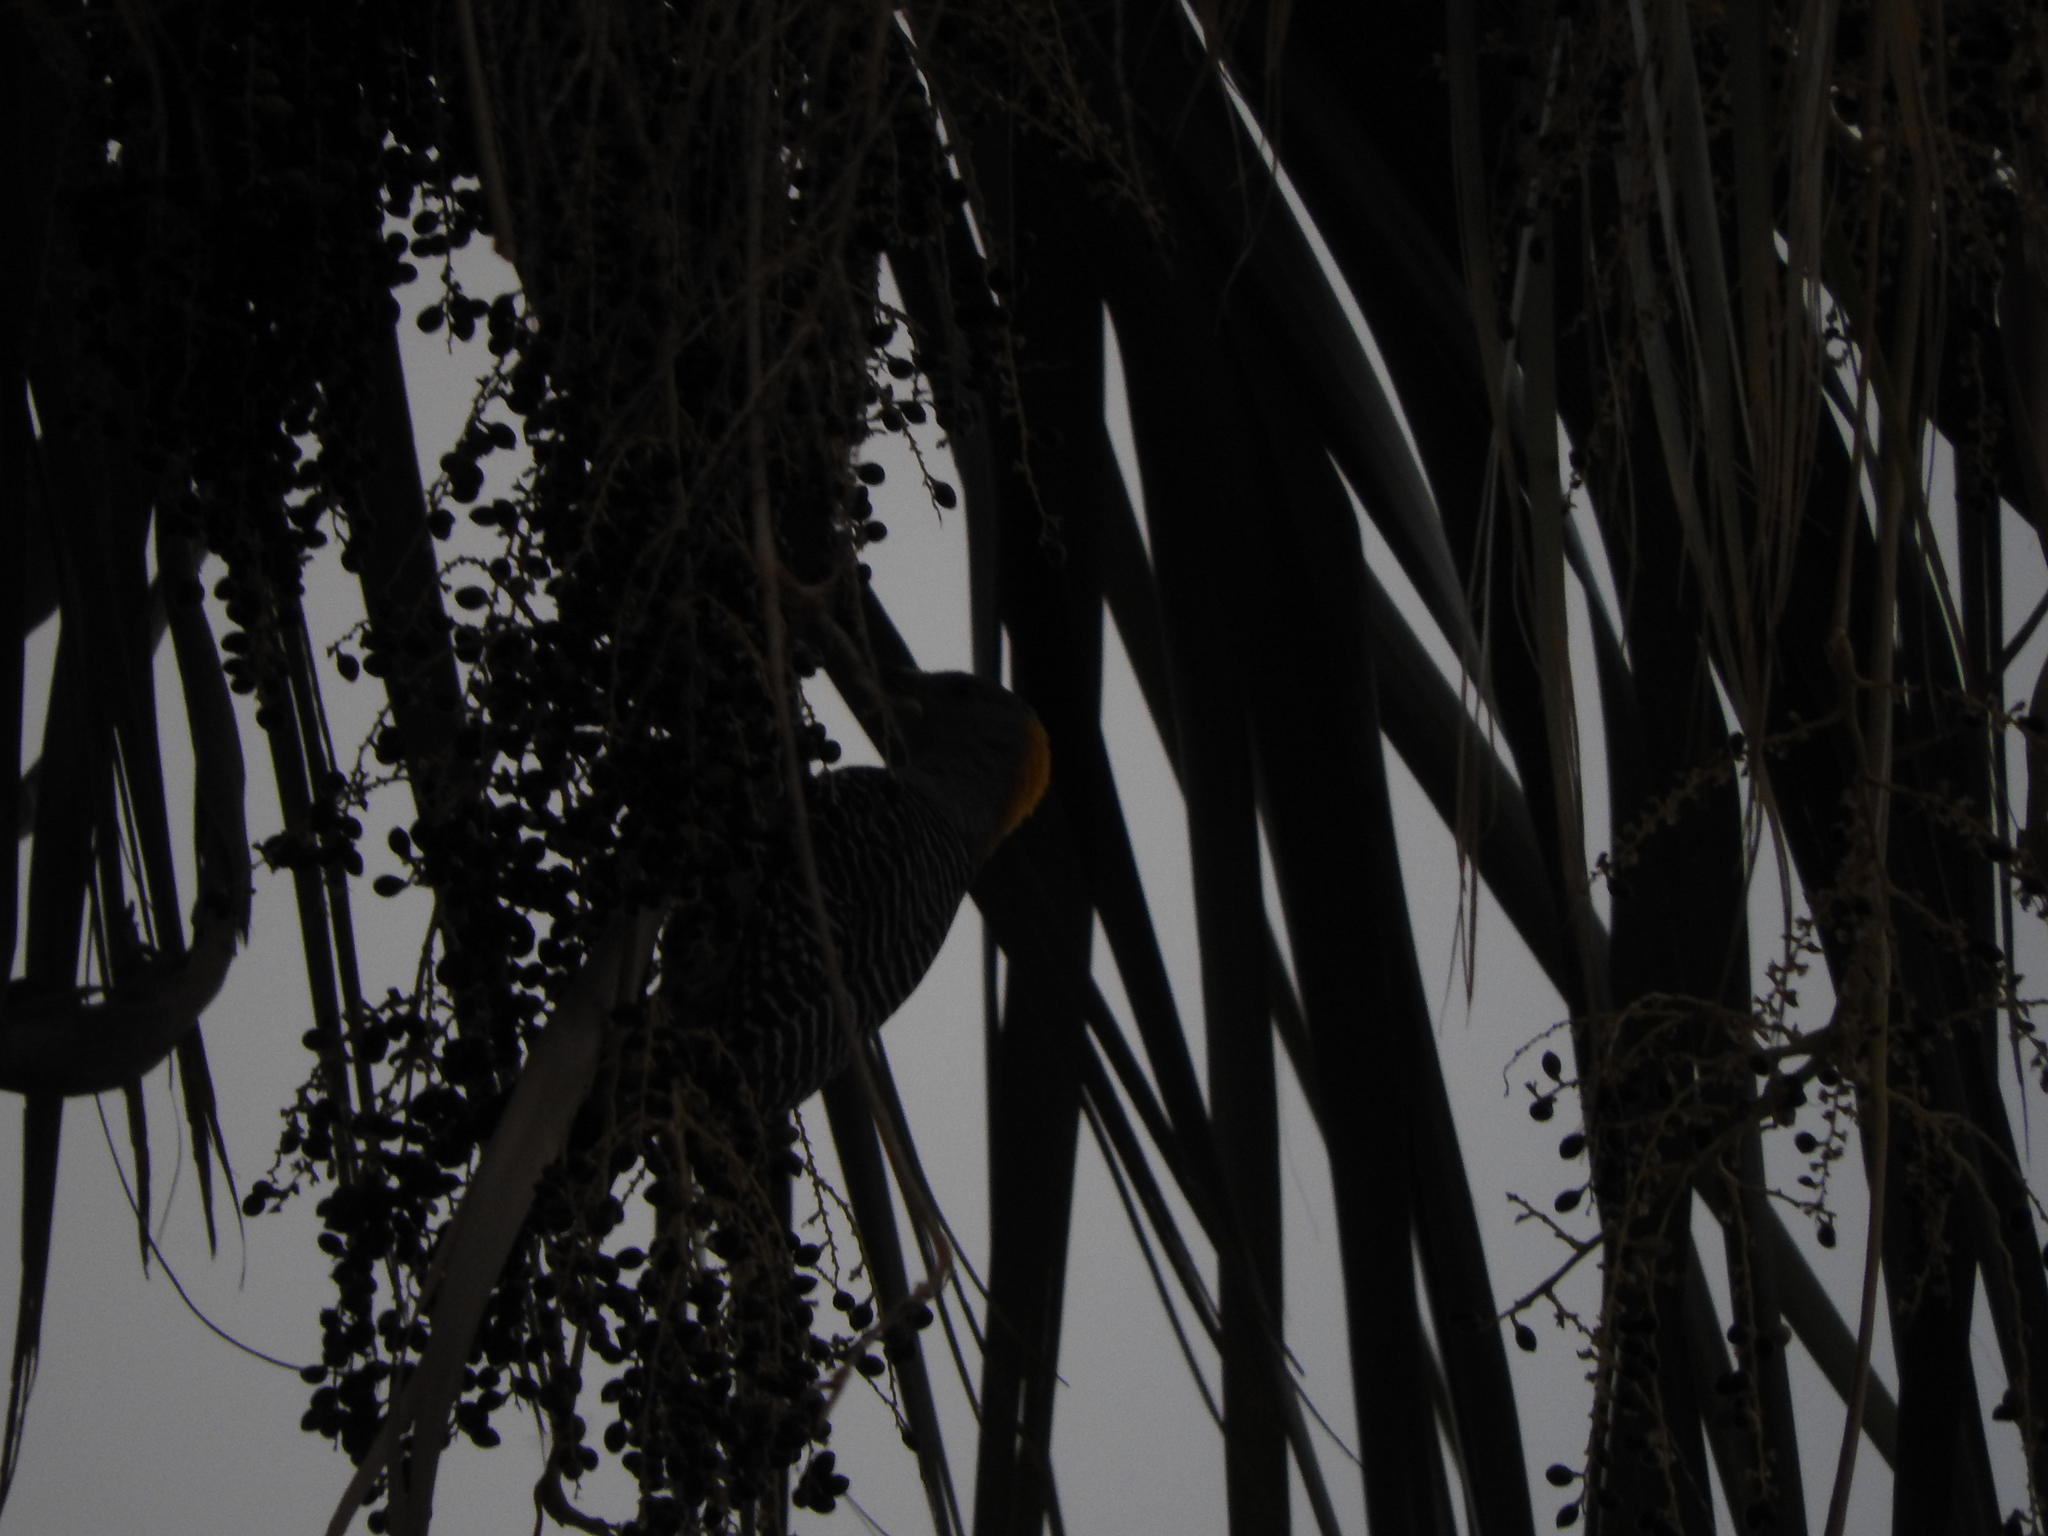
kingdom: Animalia
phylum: Chordata
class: Aves
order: Piciformes
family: Picidae
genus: Melanerpes
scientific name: Melanerpes aurifrons
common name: Golden-fronted woodpecker
